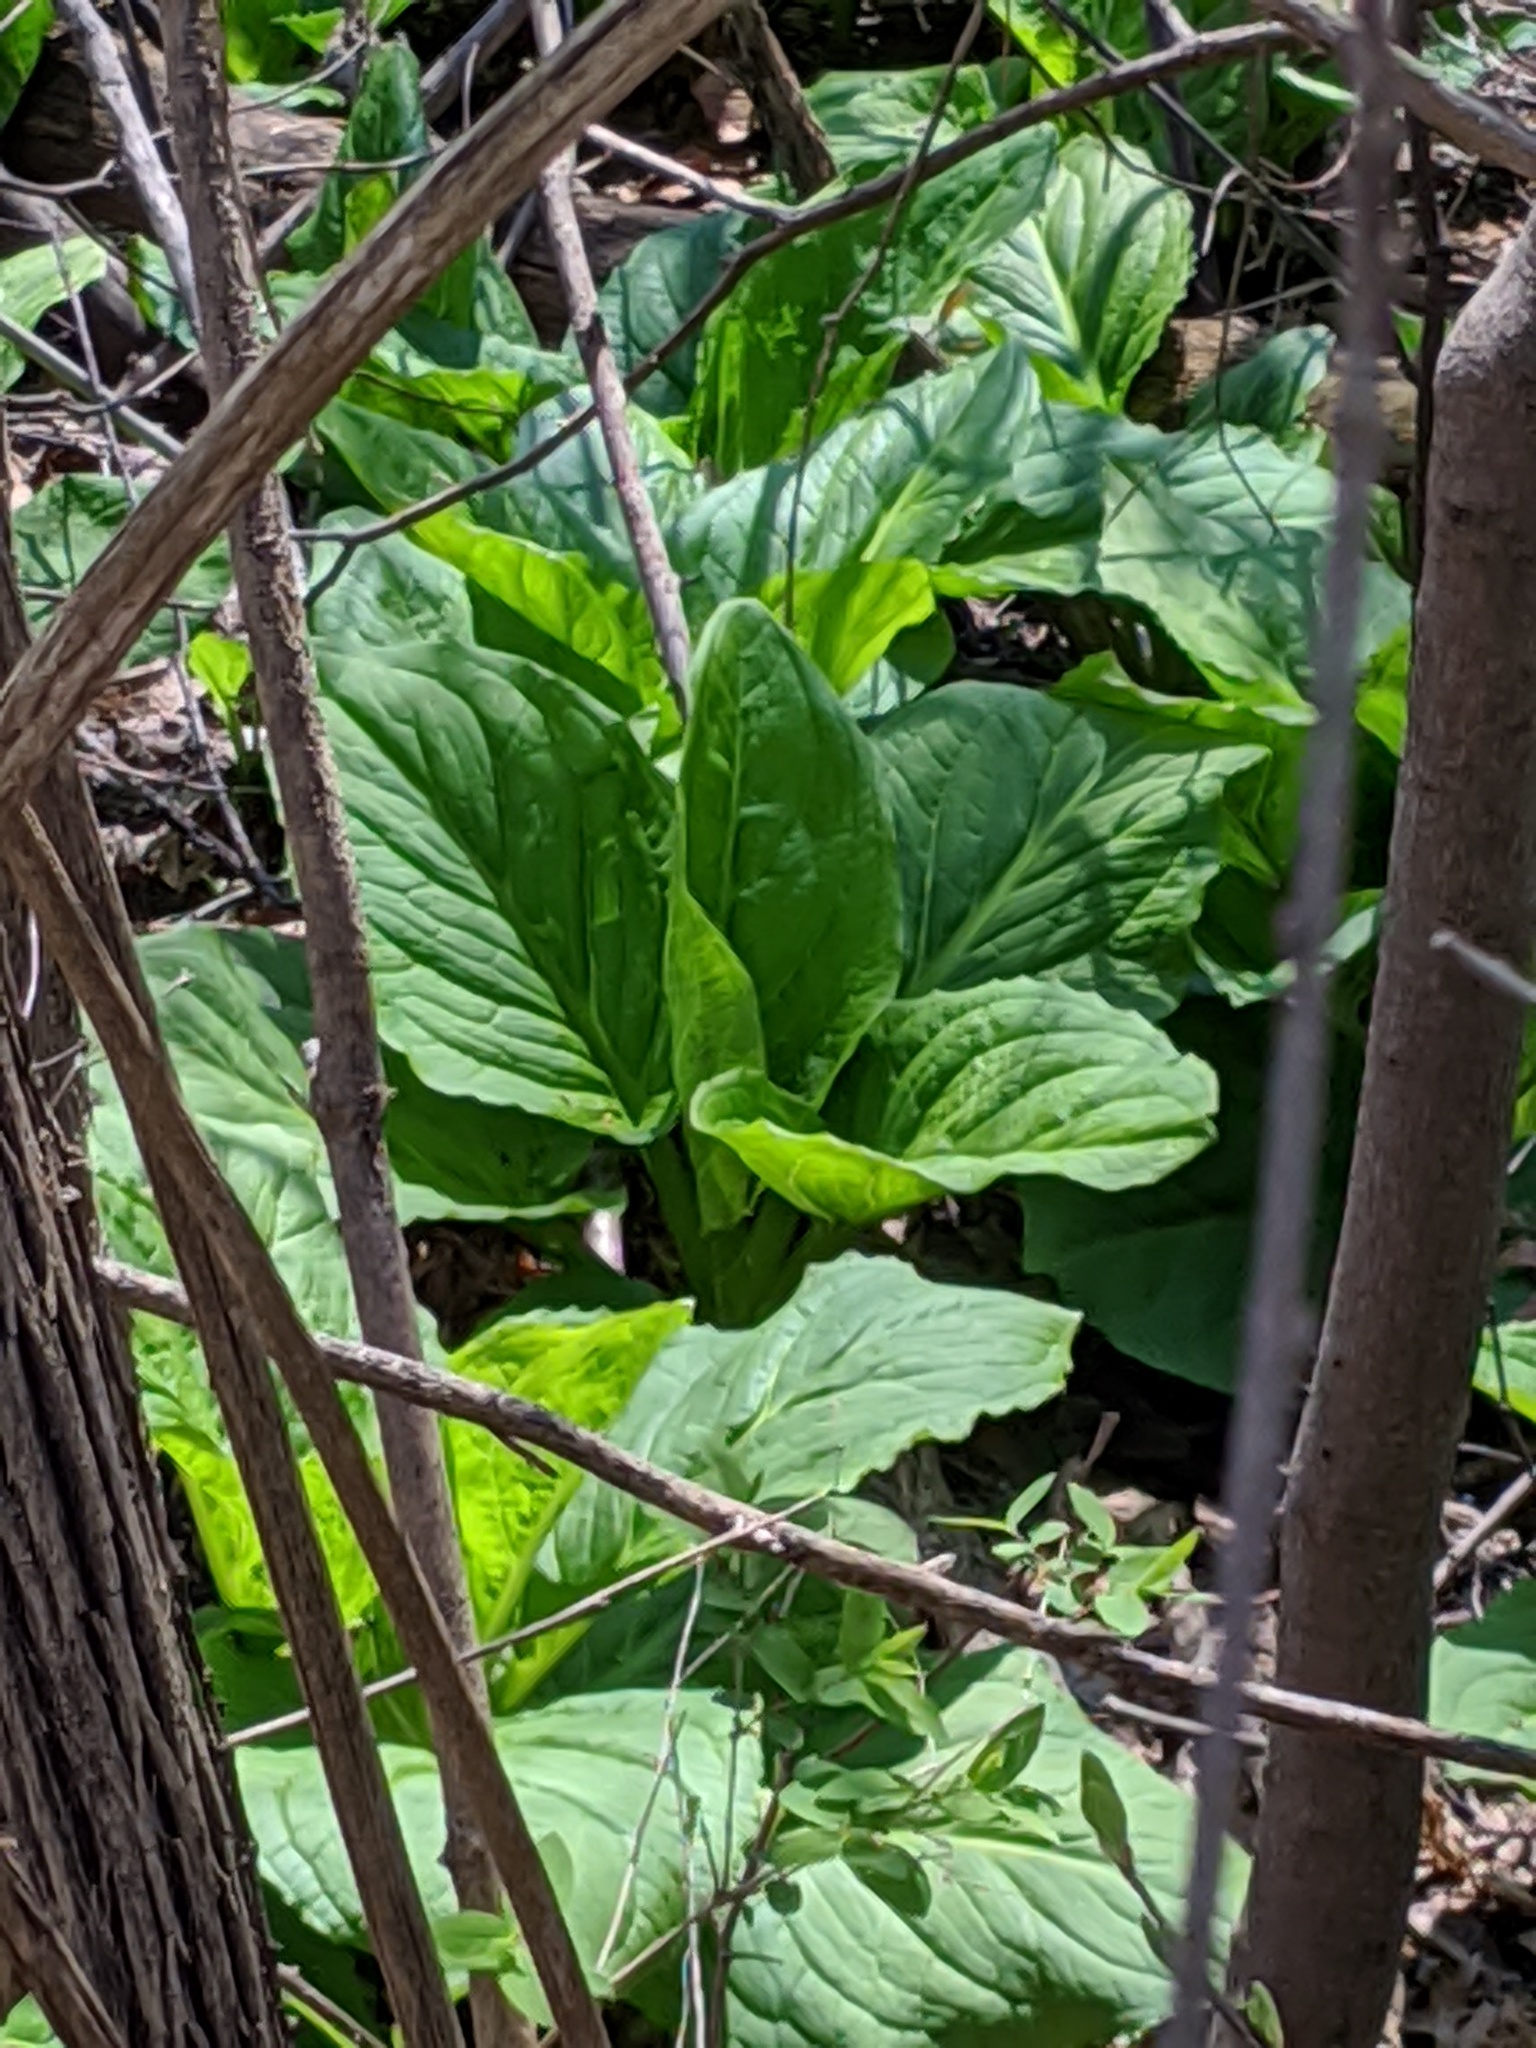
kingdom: Plantae
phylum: Tracheophyta
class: Liliopsida
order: Alismatales
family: Araceae
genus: Symplocarpus
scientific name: Symplocarpus foetidus
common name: Eastern skunk cabbage
